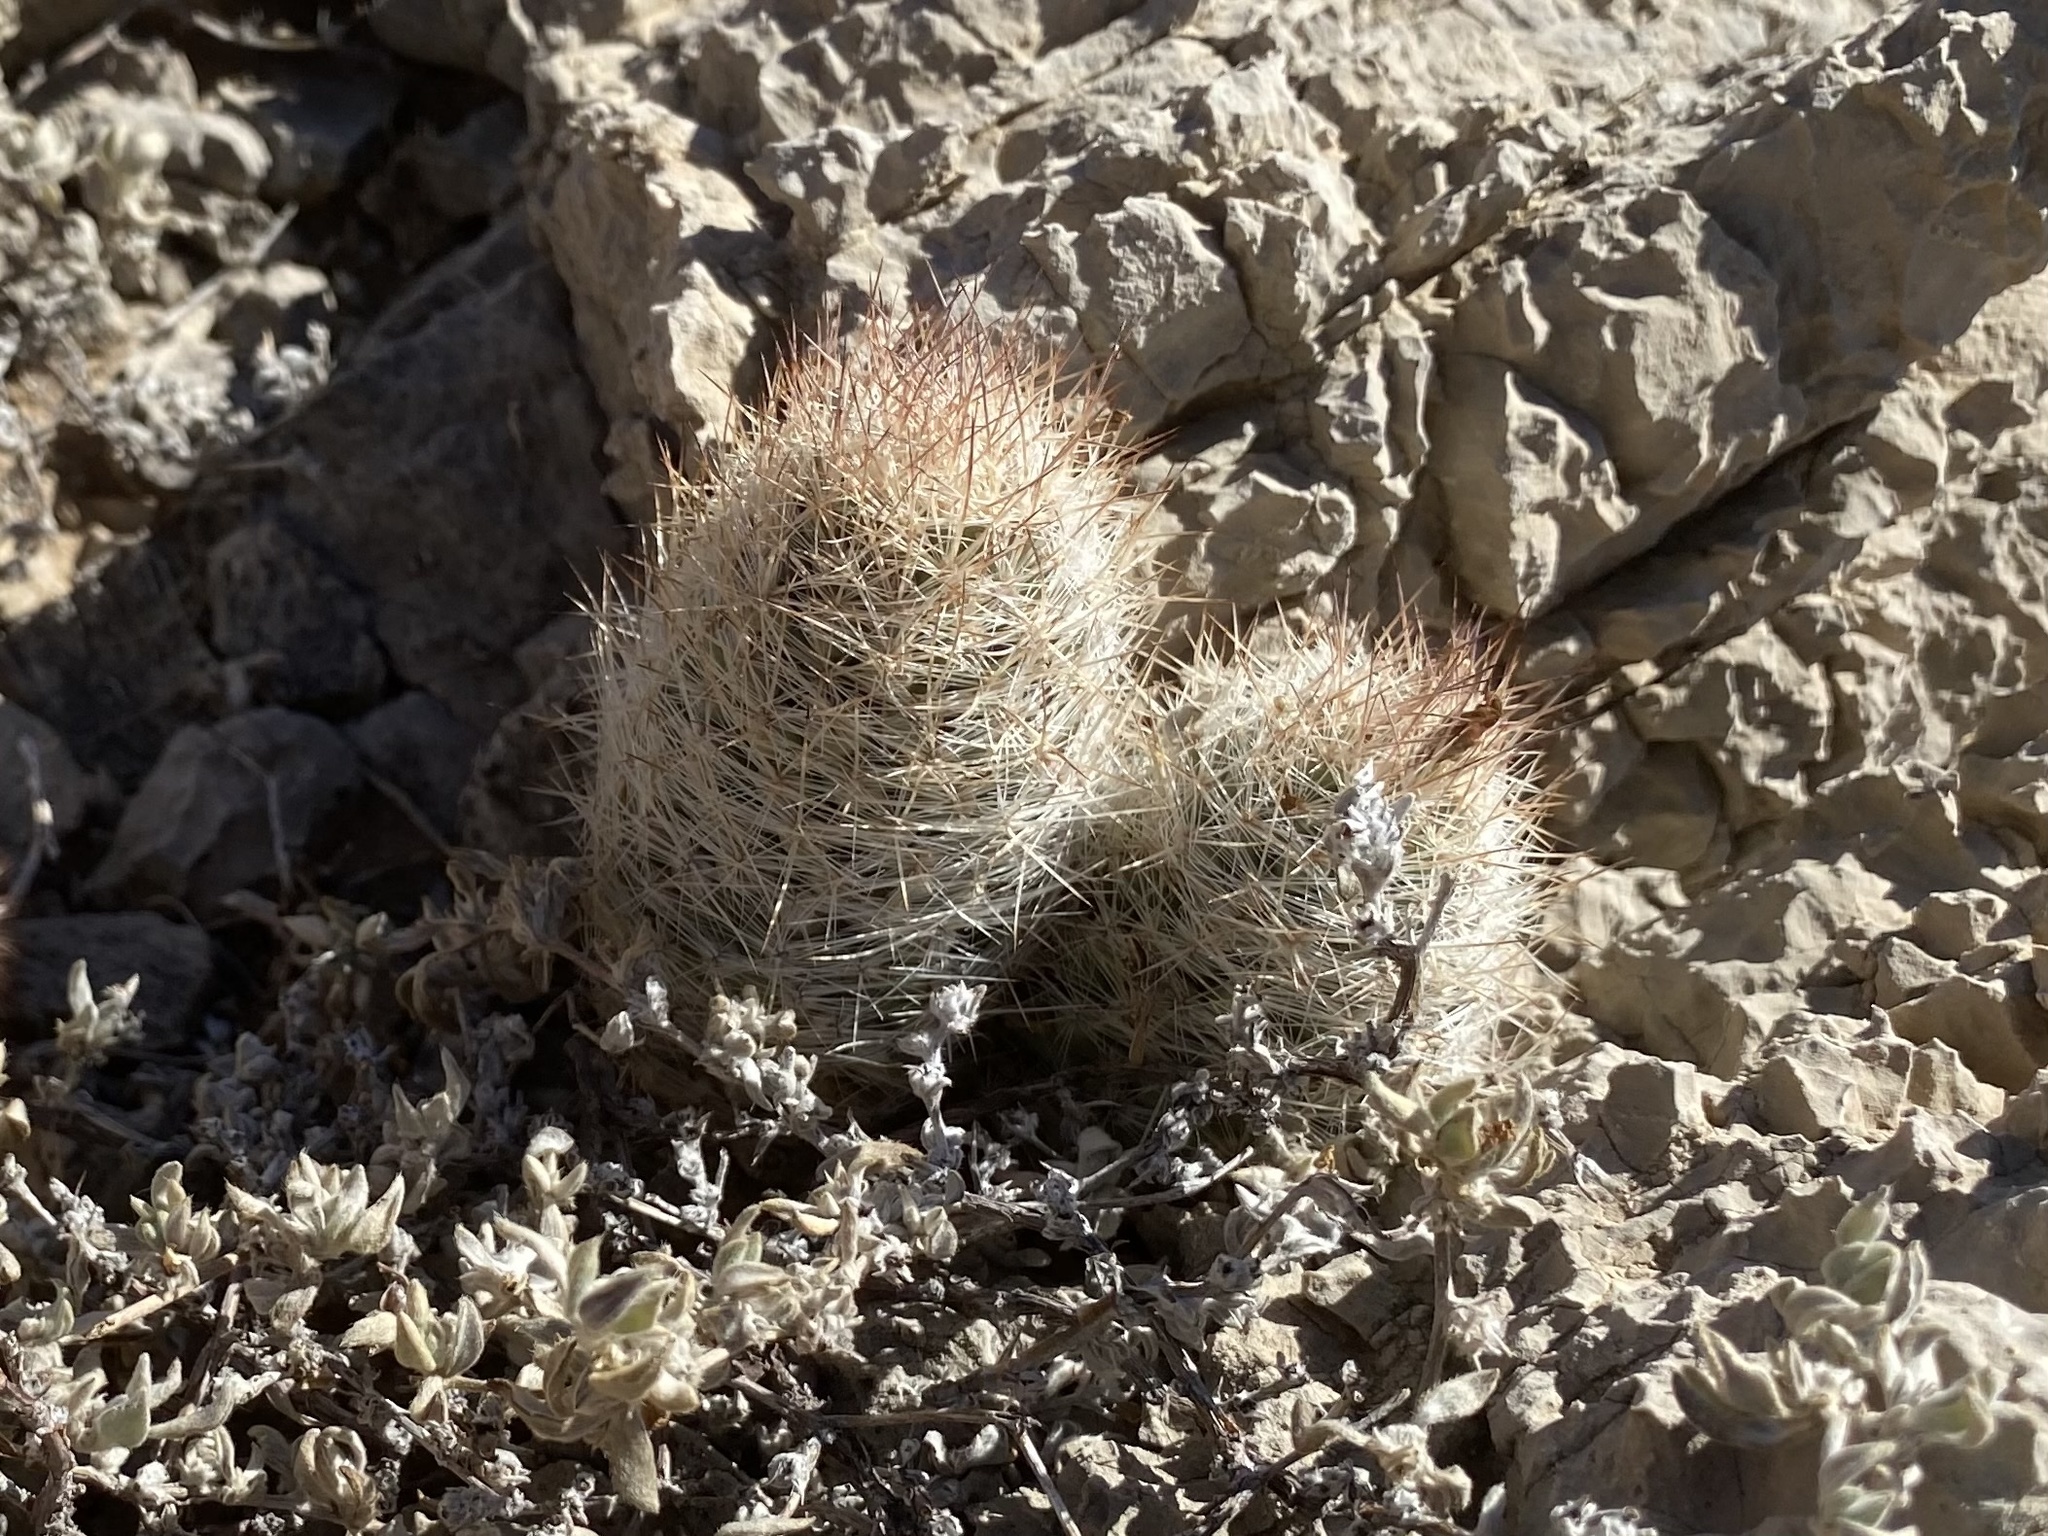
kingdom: Plantae
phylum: Tracheophyta
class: Magnoliopsida
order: Caryophyllales
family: Cactaceae
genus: Pelecyphora
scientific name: Pelecyphora tuberculosa
